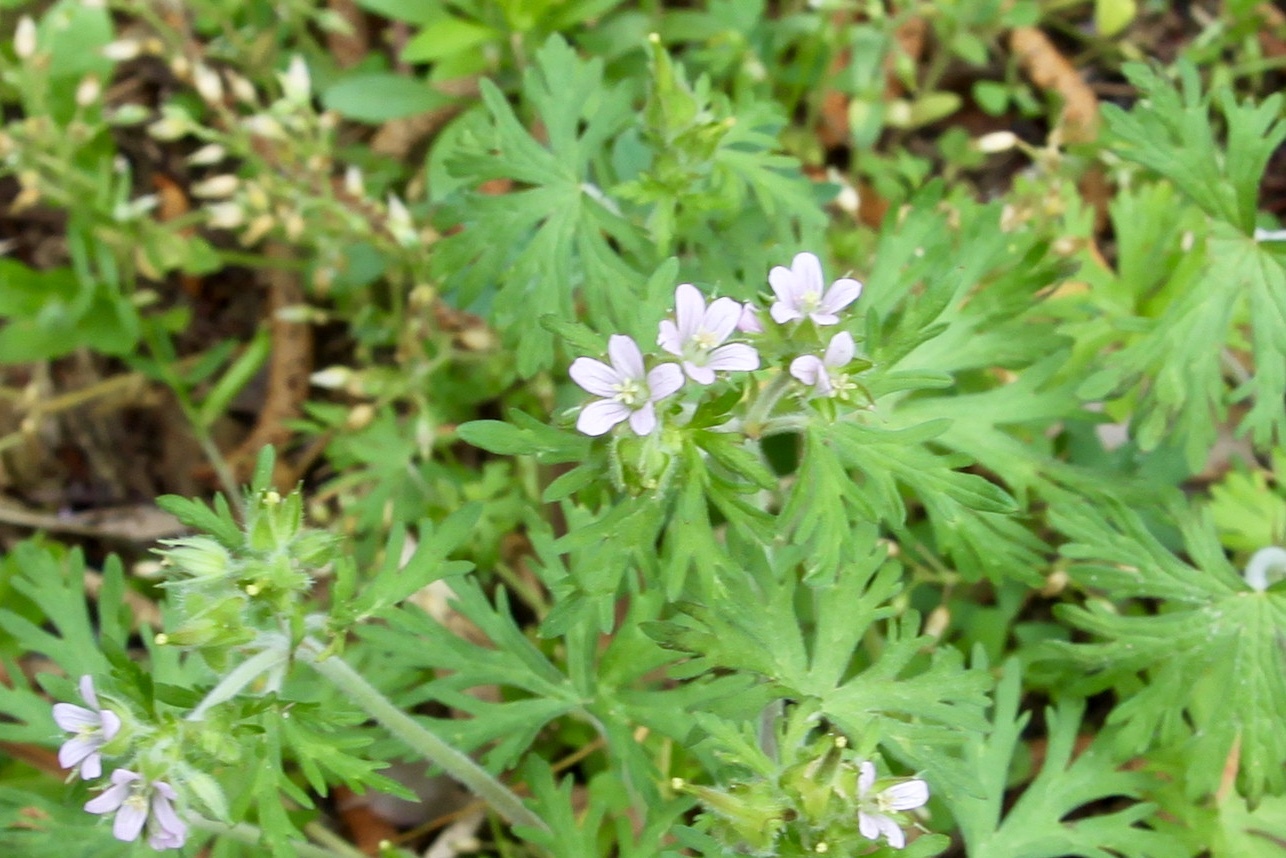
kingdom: Plantae
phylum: Tracheophyta
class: Magnoliopsida
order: Geraniales
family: Geraniaceae
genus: Geranium
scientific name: Geranium carolinianum
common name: Carolina crane's-bill
